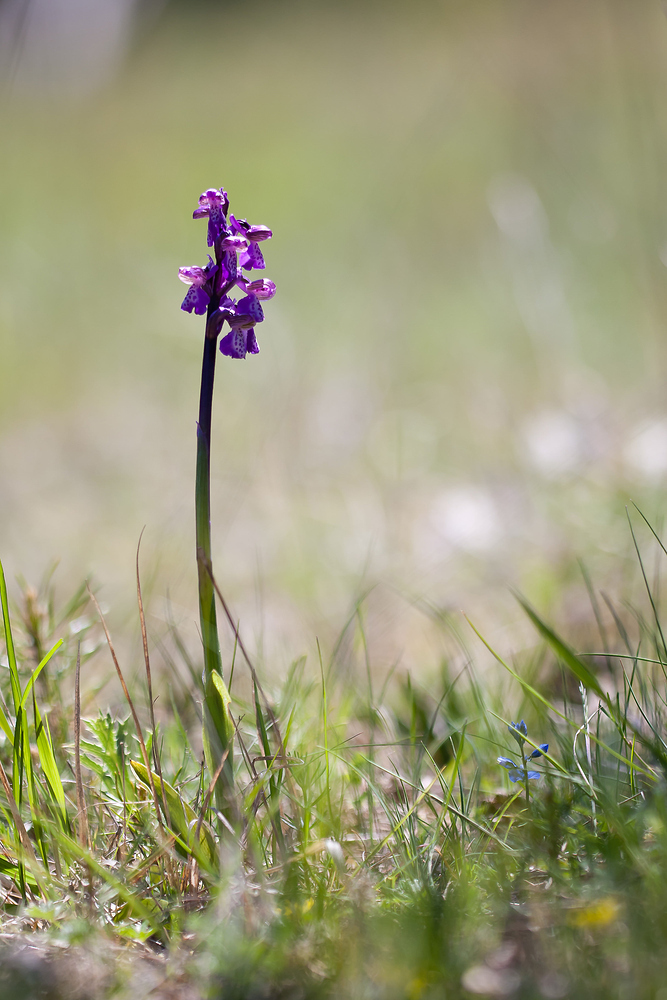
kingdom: Plantae
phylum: Tracheophyta
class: Liliopsida
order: Asparagales
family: Orchidaceae
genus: Anacamptis
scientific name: Anacamptis morio
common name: Green-winged orchid
